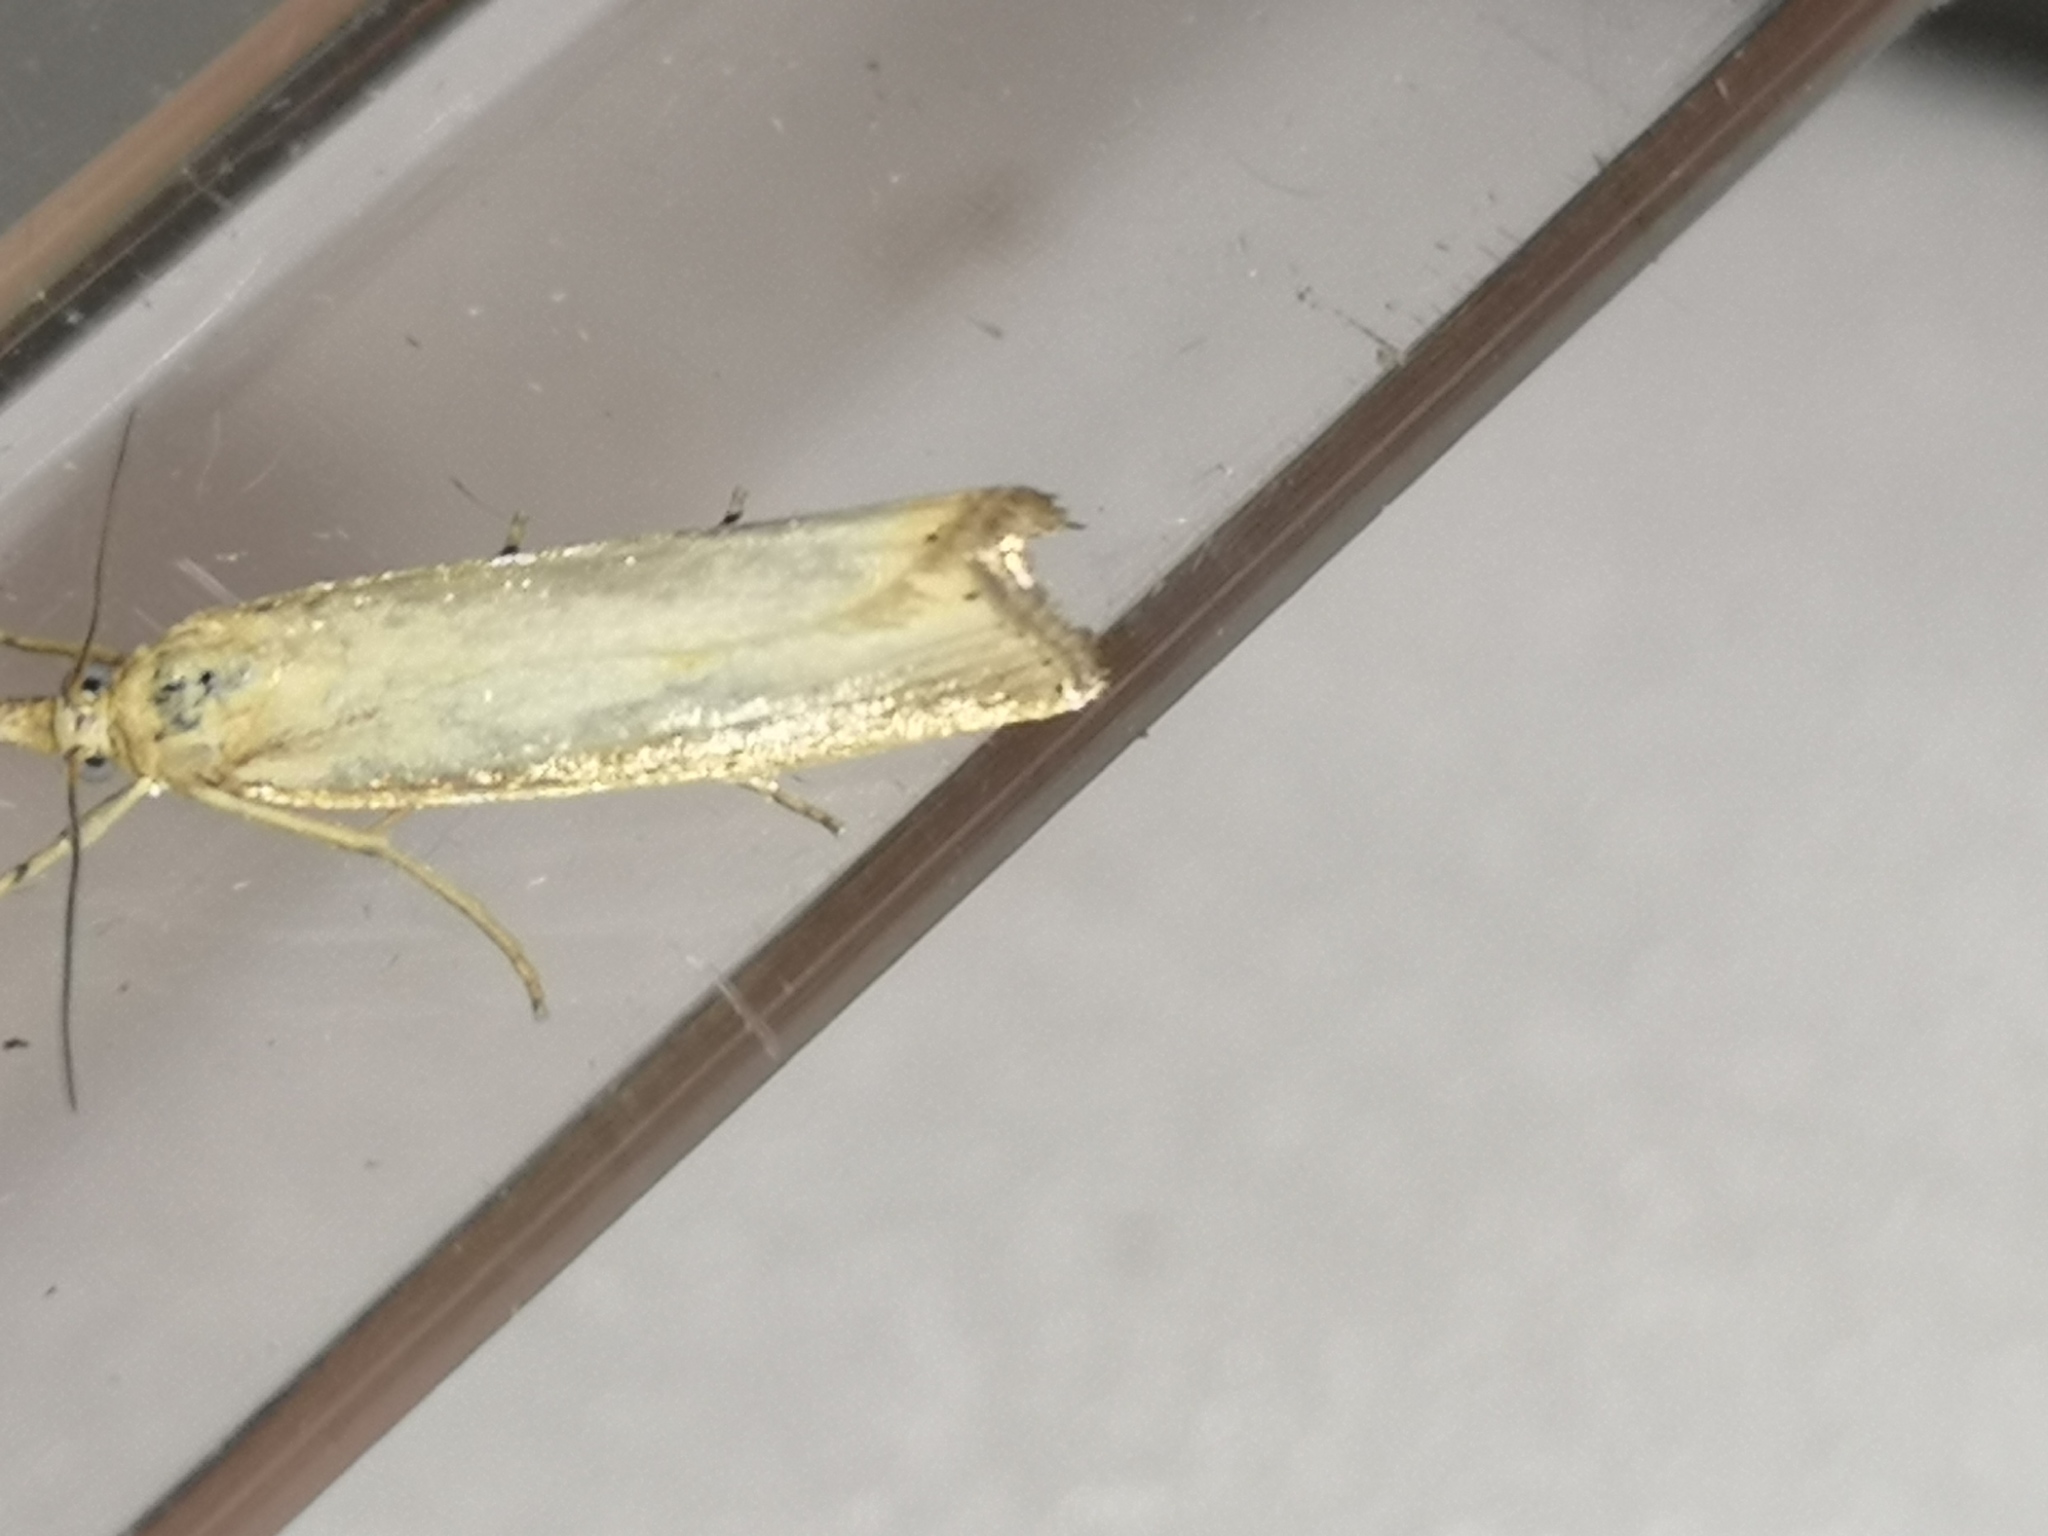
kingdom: Animalia
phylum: Arthropoda
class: Insecta
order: Lepidoptera
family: Crambidae
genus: Agriphila
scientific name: Agriphila straminella
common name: Straw grass-veneer
